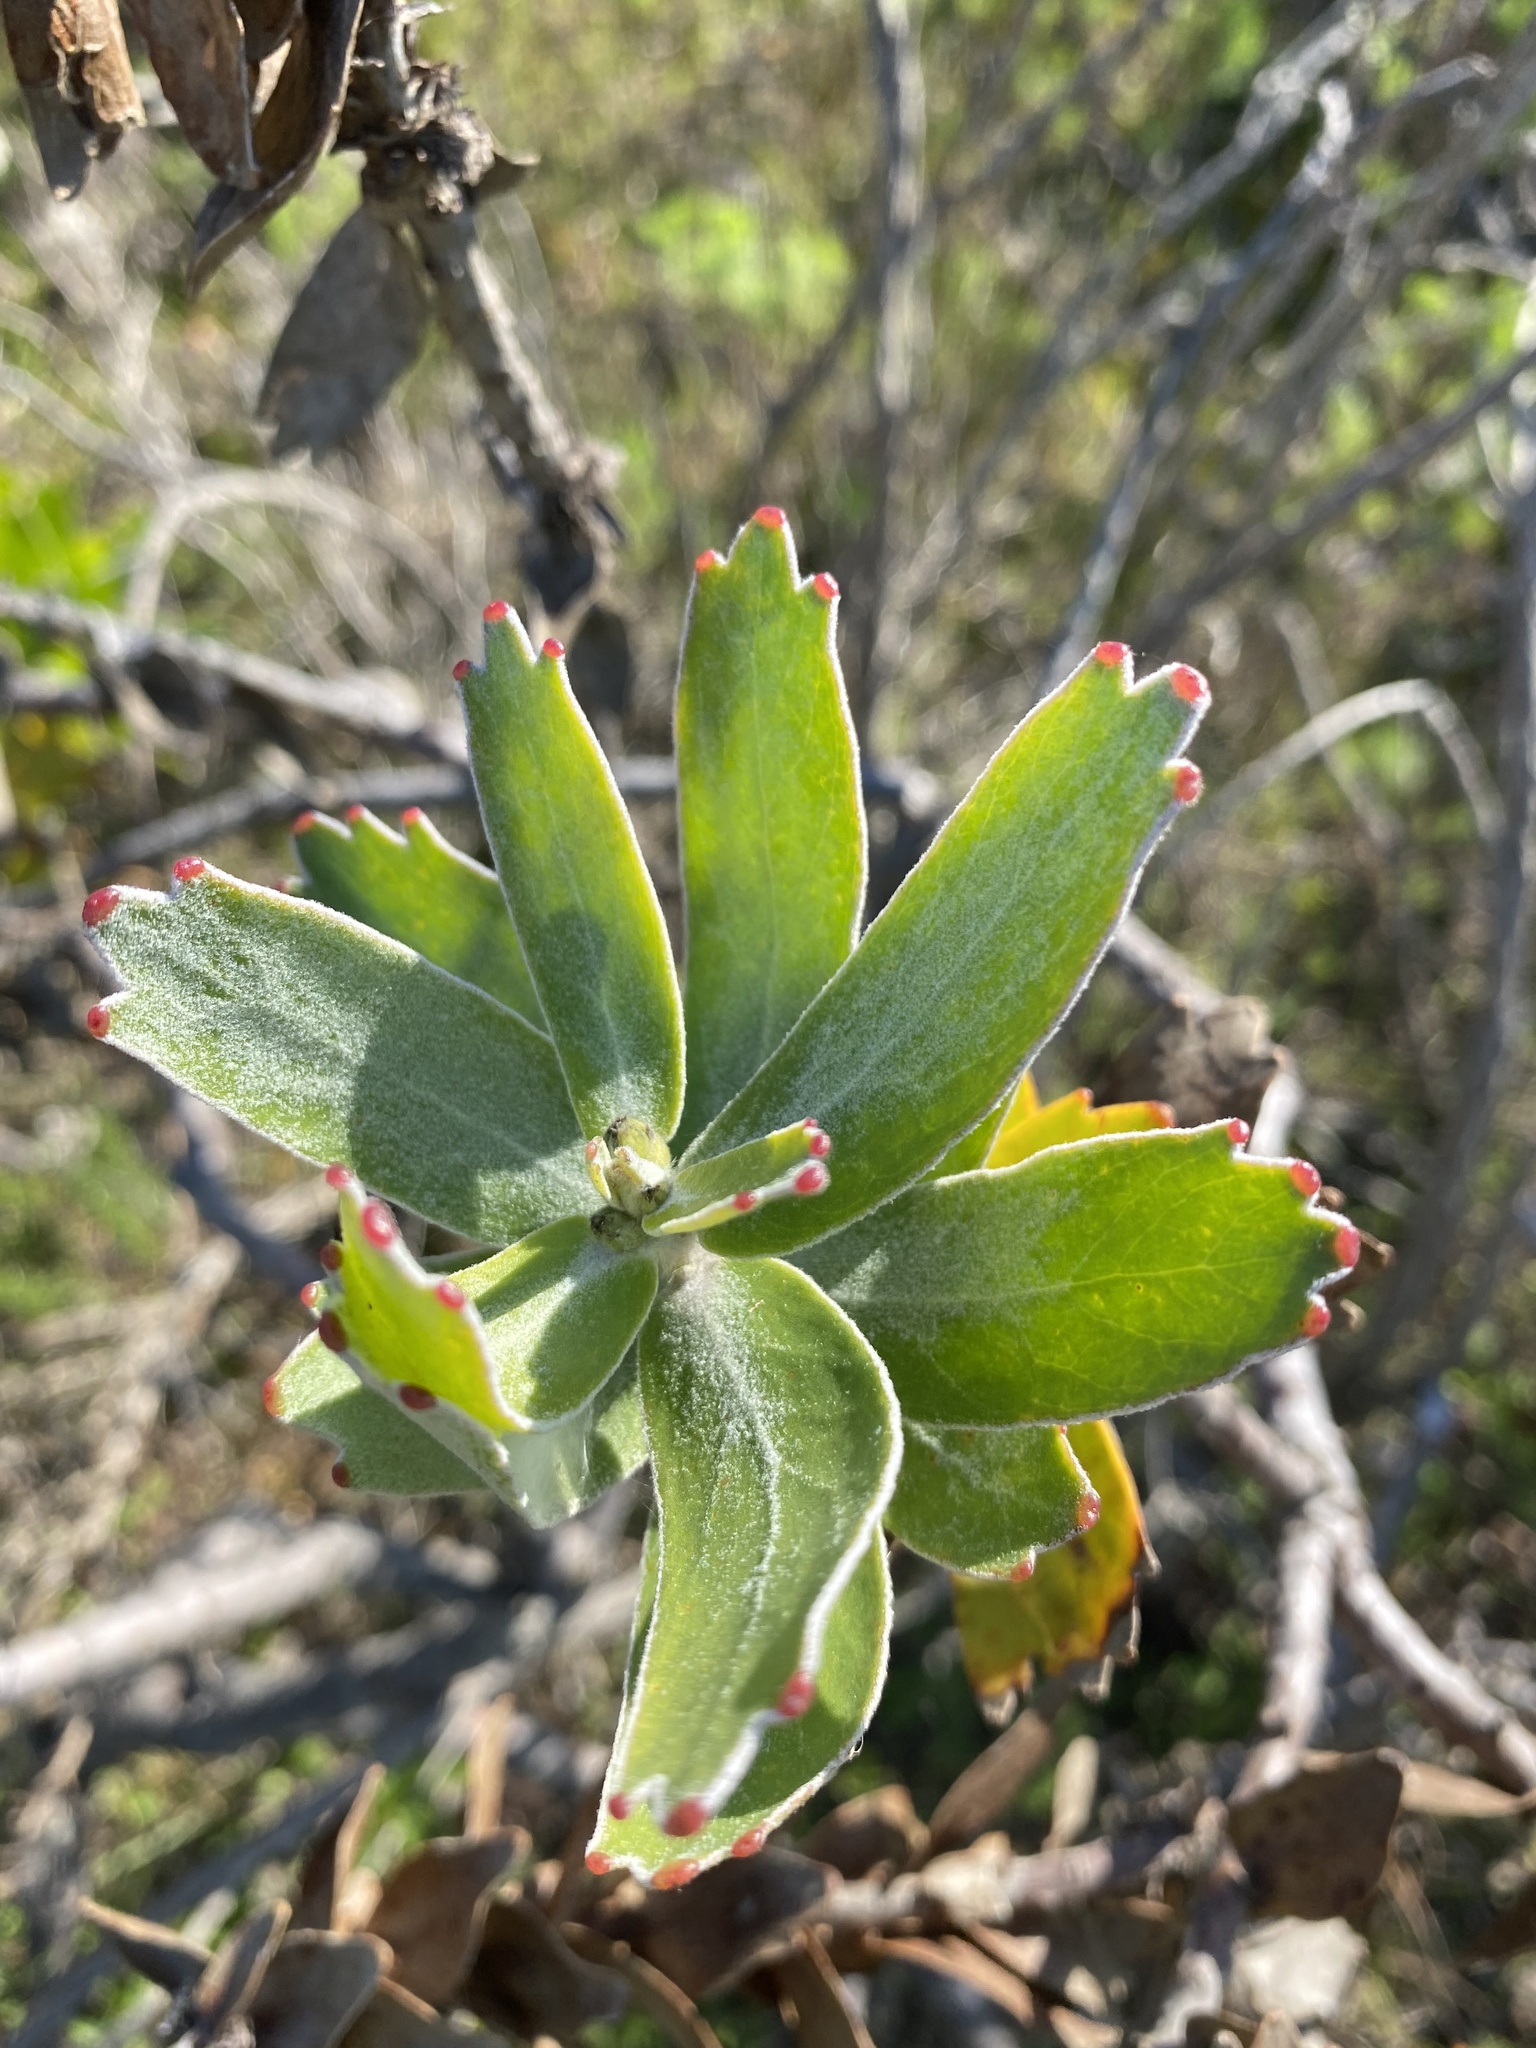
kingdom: Plantae
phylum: Tracheophyta
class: Magnoliopsida
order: Proteales
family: Proteaceae
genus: Leucospermum
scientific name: Leucospermum cordifolium
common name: Red pincushion-protea
